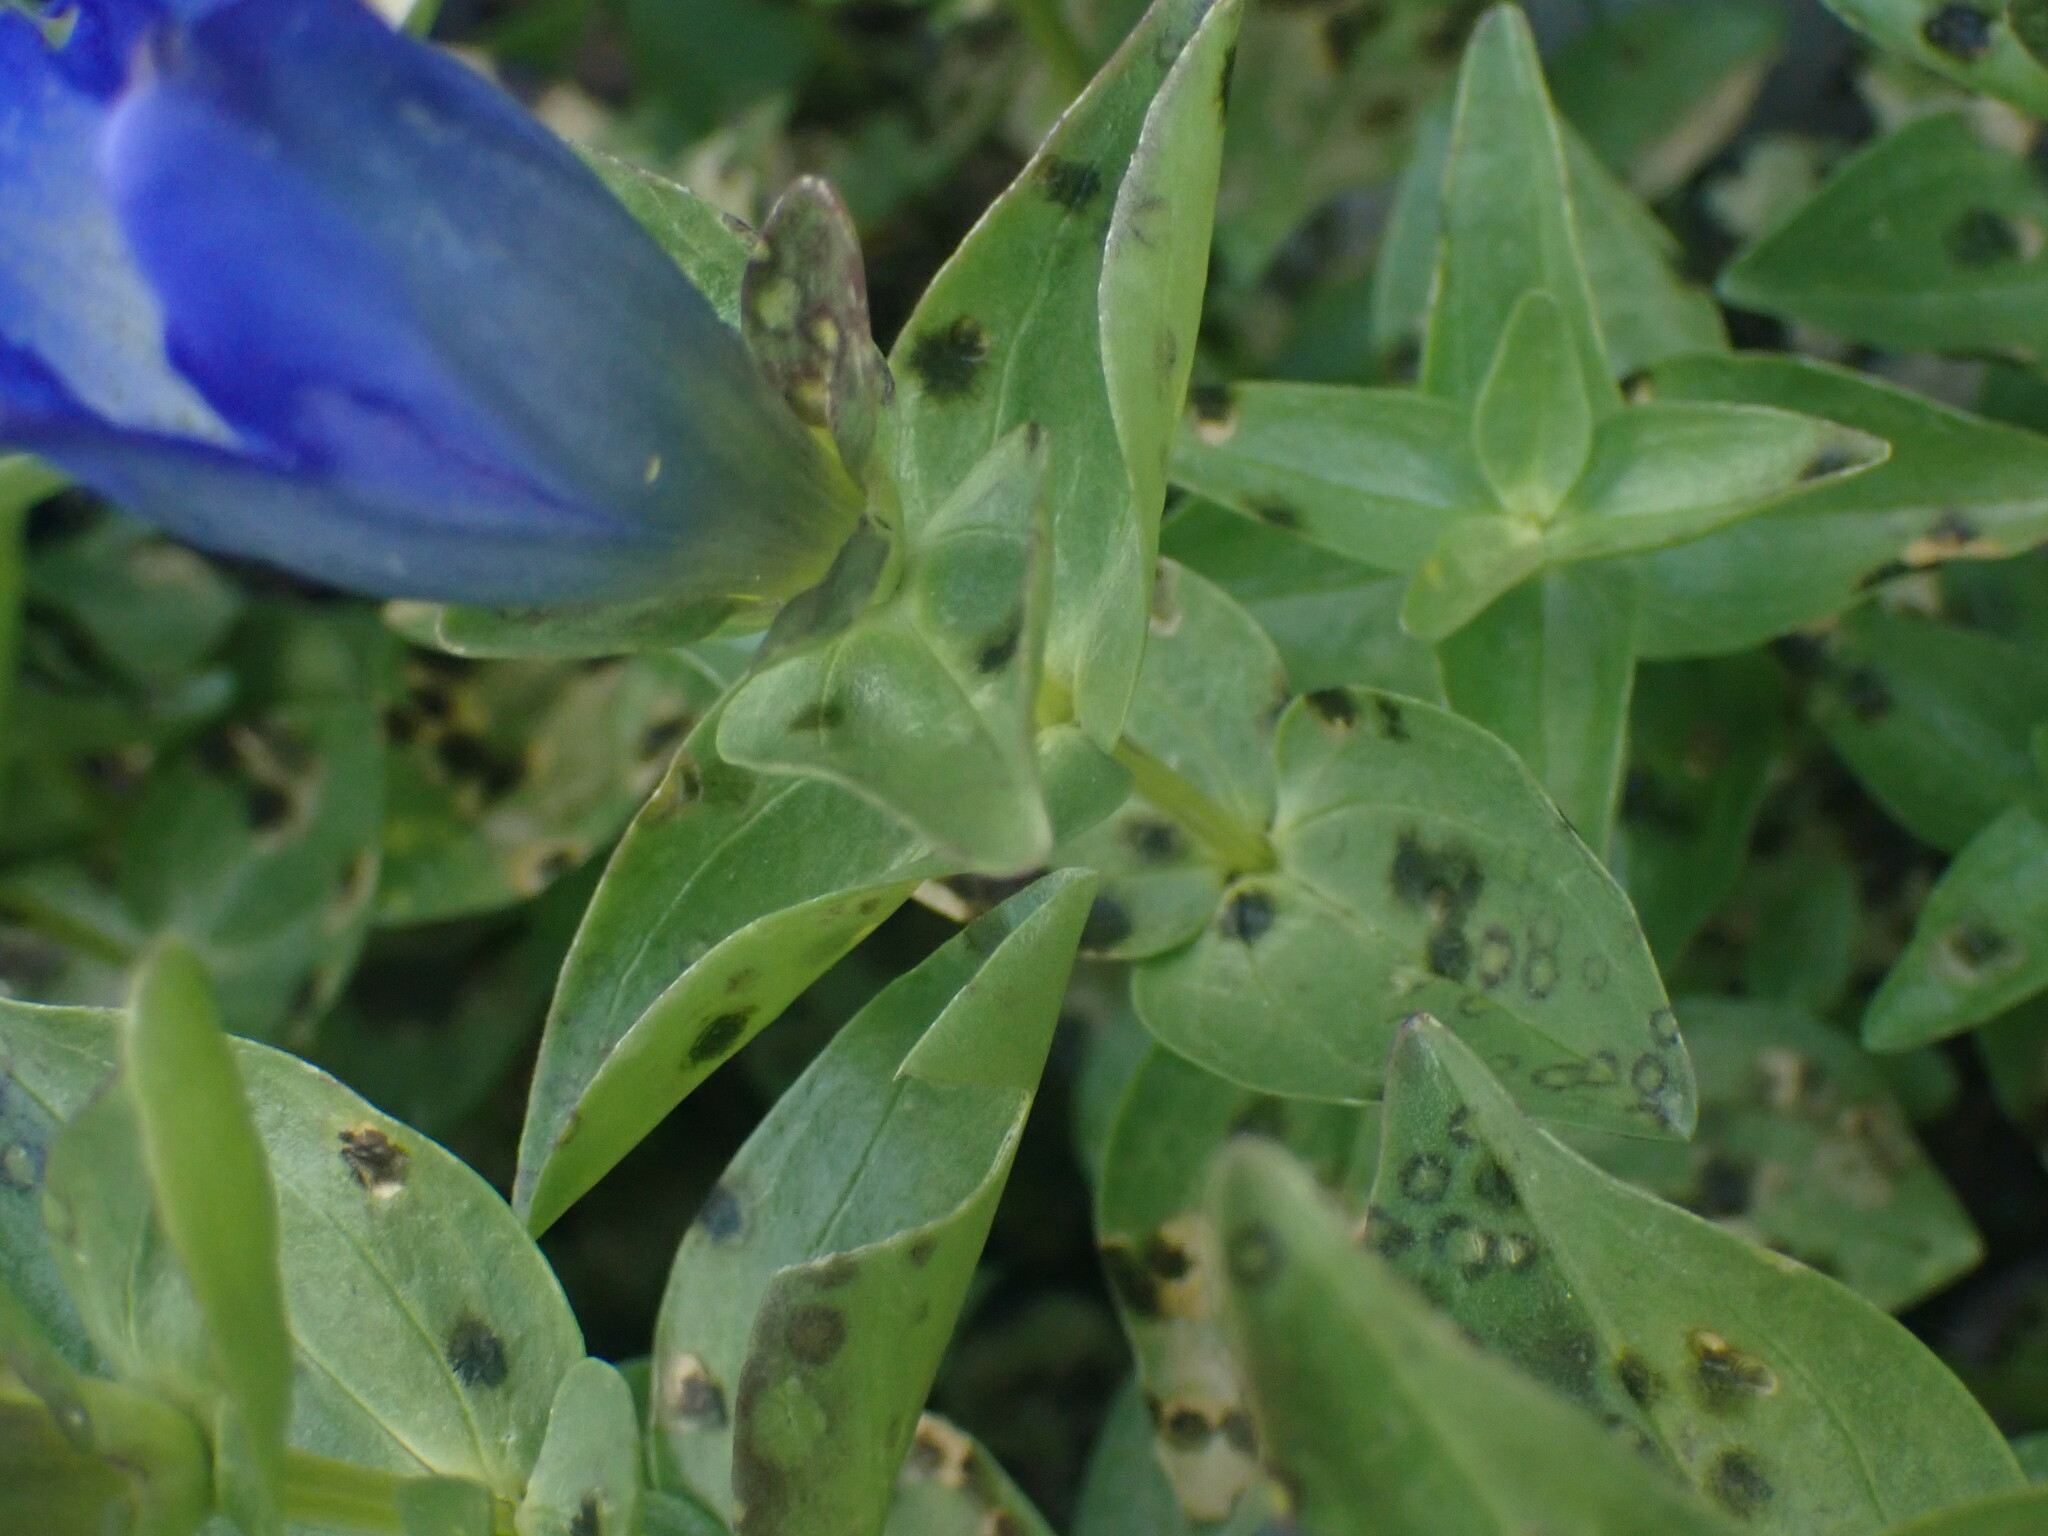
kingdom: Plantae
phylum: Tracheophyta
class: Magnoliopsida
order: Gentianales
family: Gentianaceae
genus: Gentiana
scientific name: Gentiana calycosa
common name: Rainier pleated gentian
